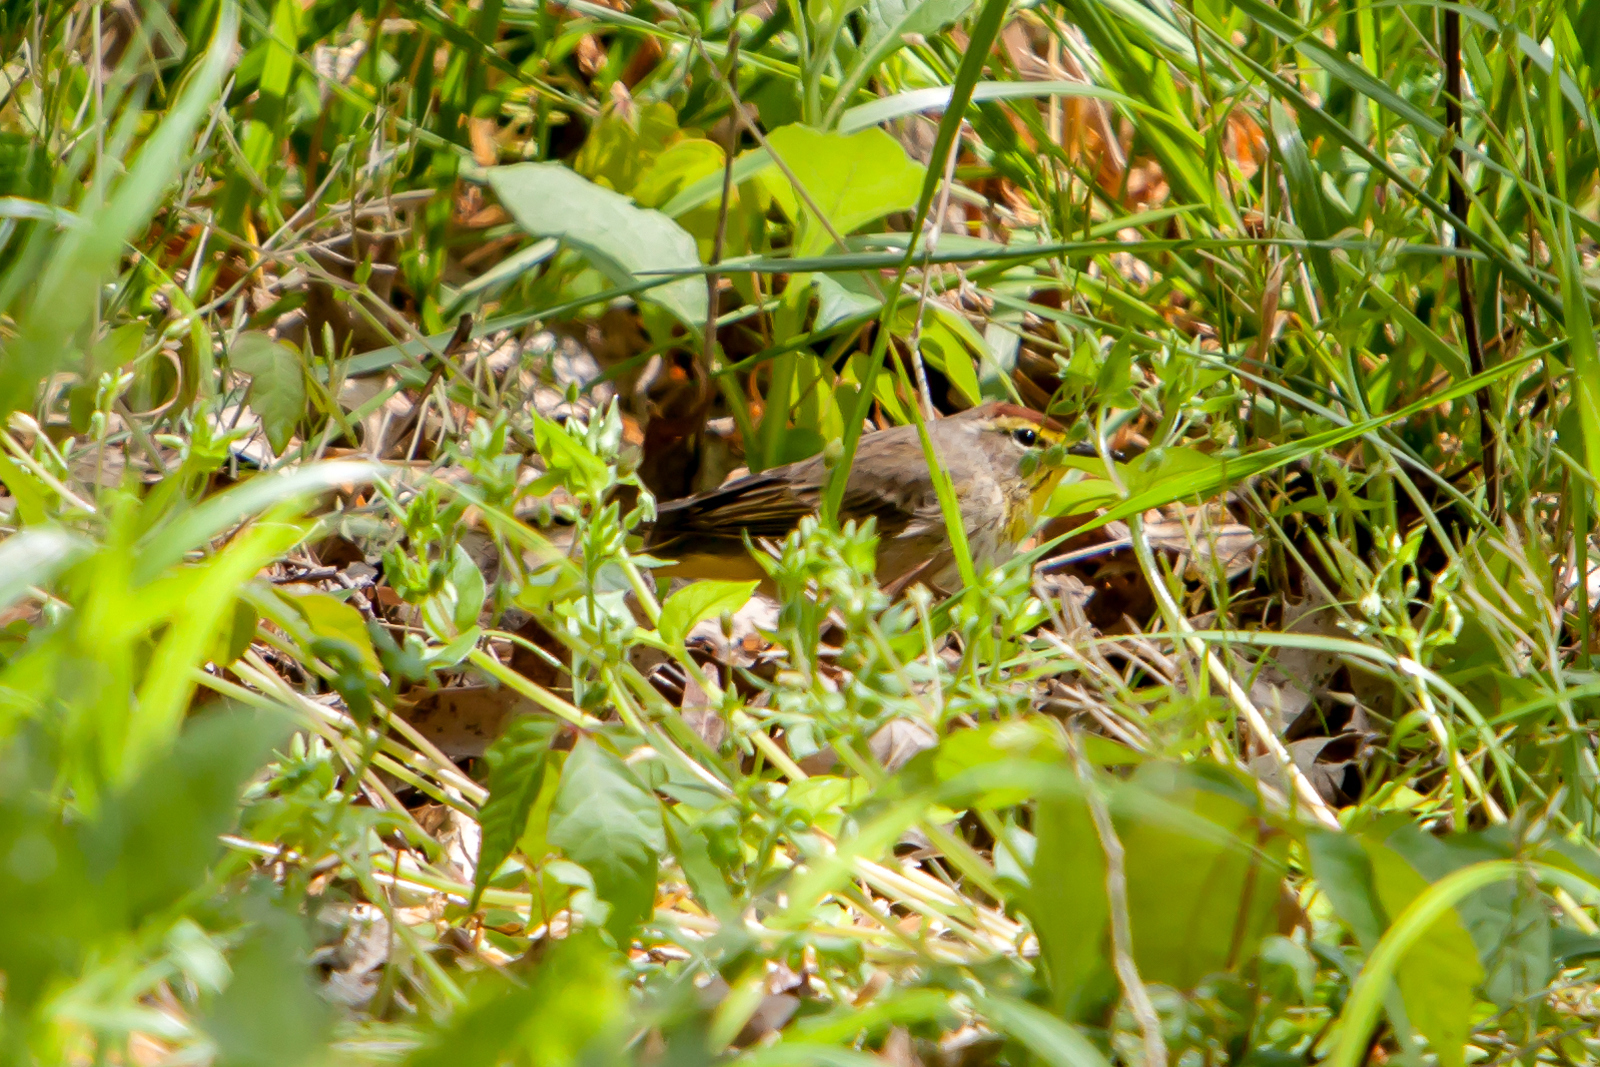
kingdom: Animalia
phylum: Chordata
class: Aves
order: Passeriformes
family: Parulidae
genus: Setophaga
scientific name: Setophaga palmarum
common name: Palm warbler
